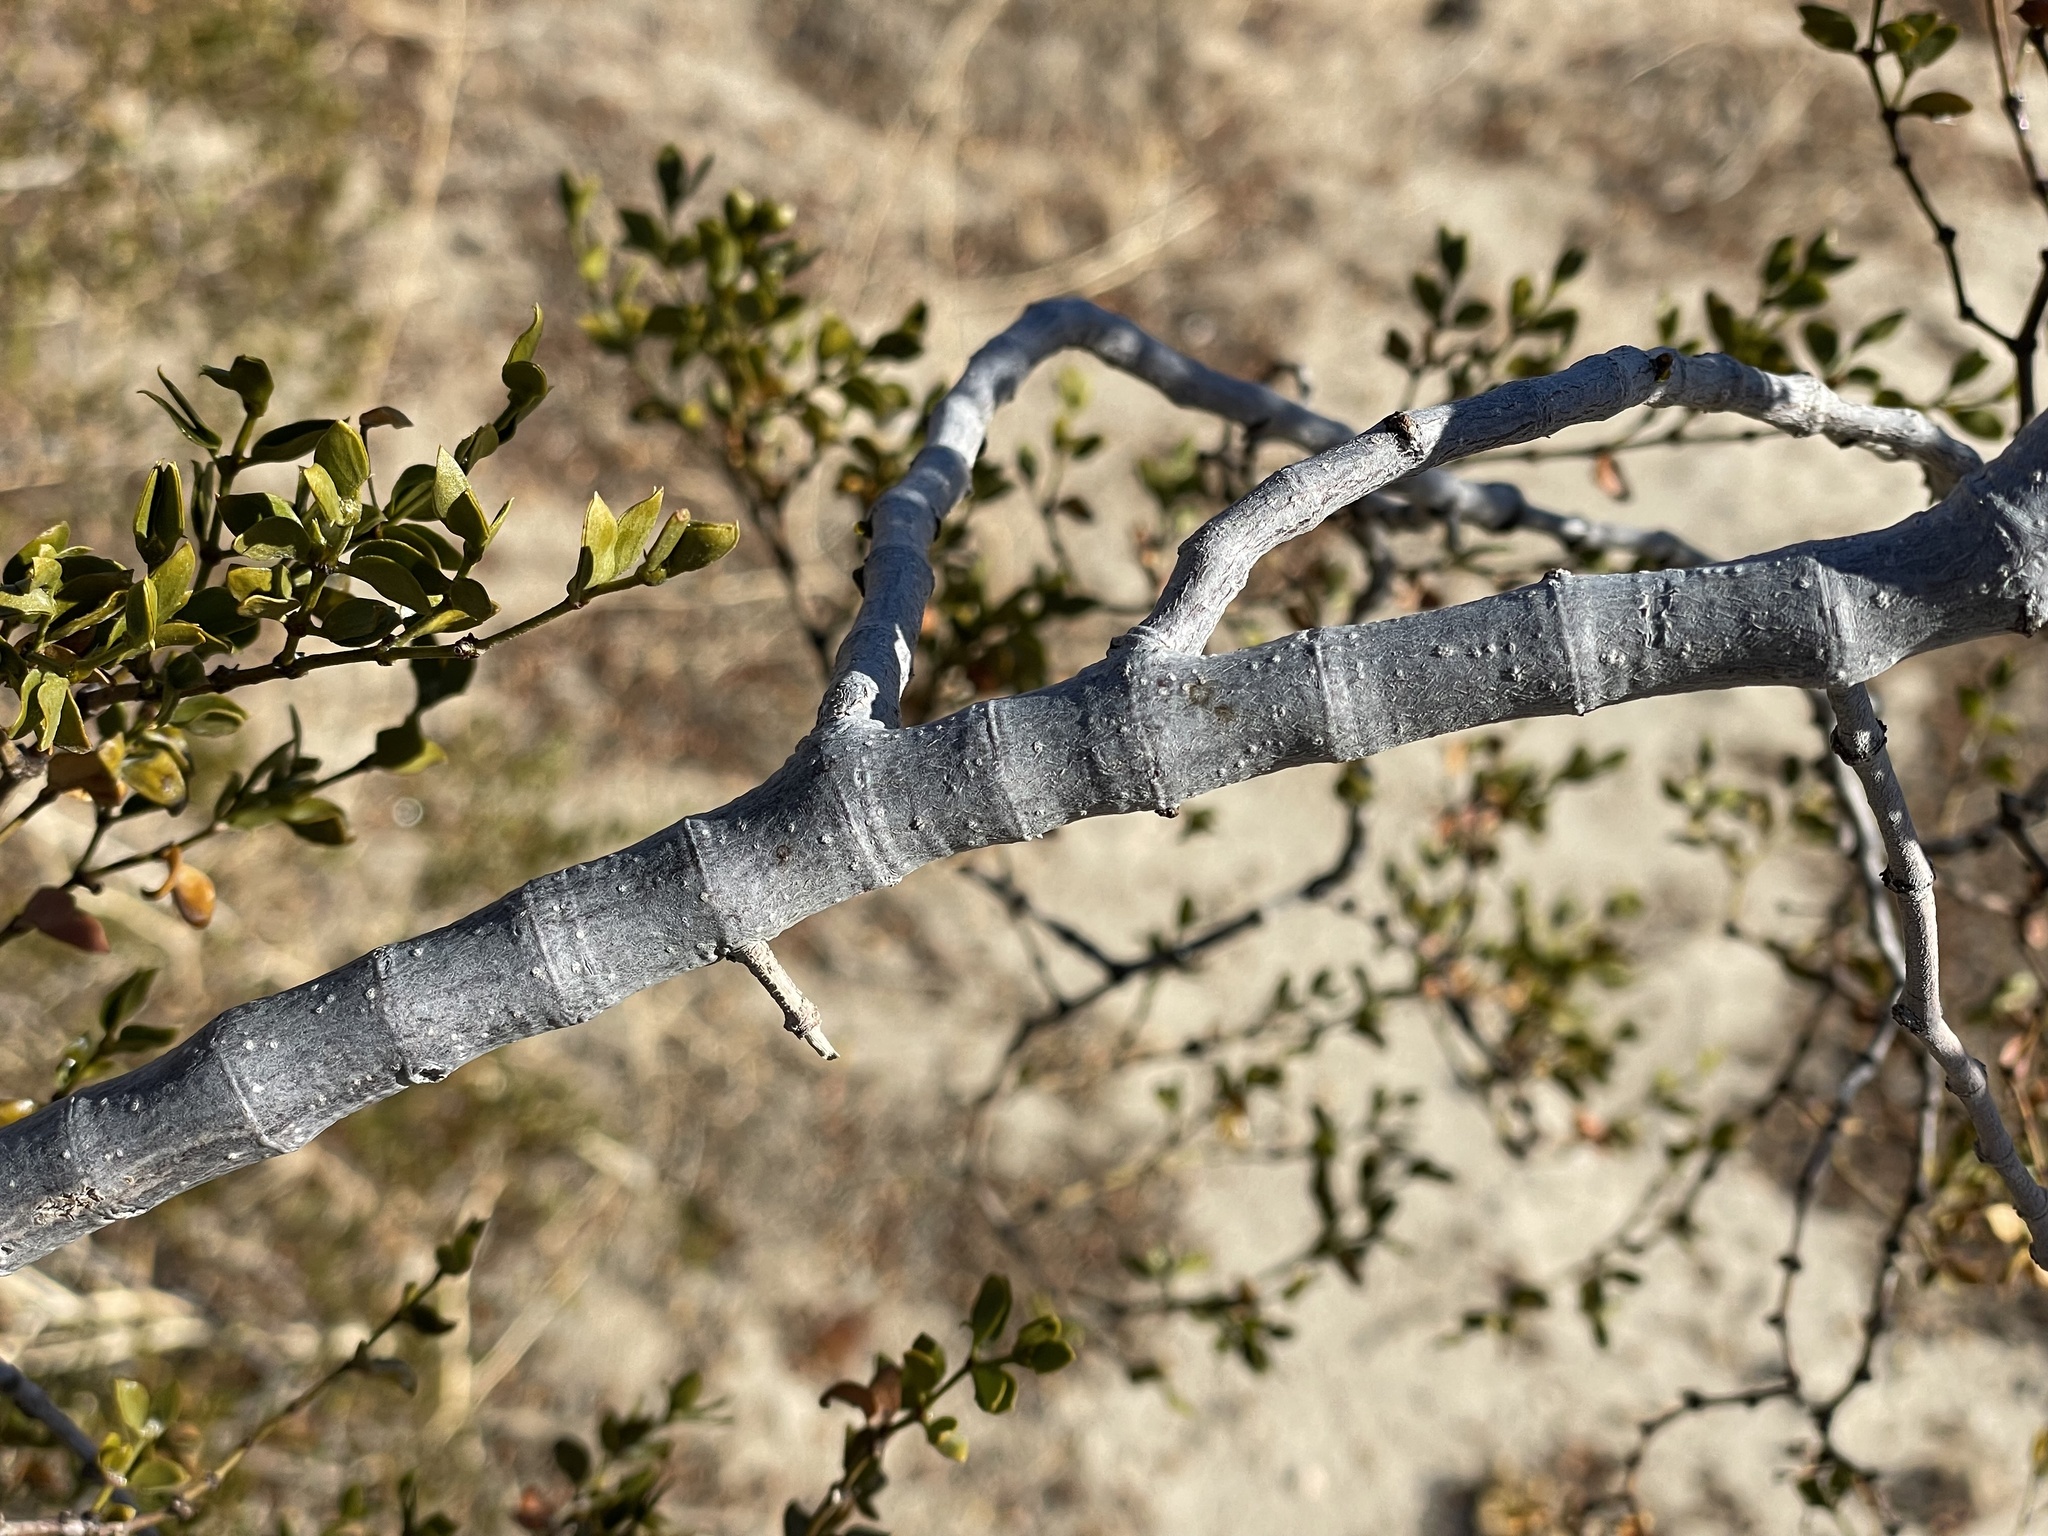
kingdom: Plantae
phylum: Tracheophyta
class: Magnoliopsida
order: Zygophyllales
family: Zygophyllaceae
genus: Larrea
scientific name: Larrea tridentata
